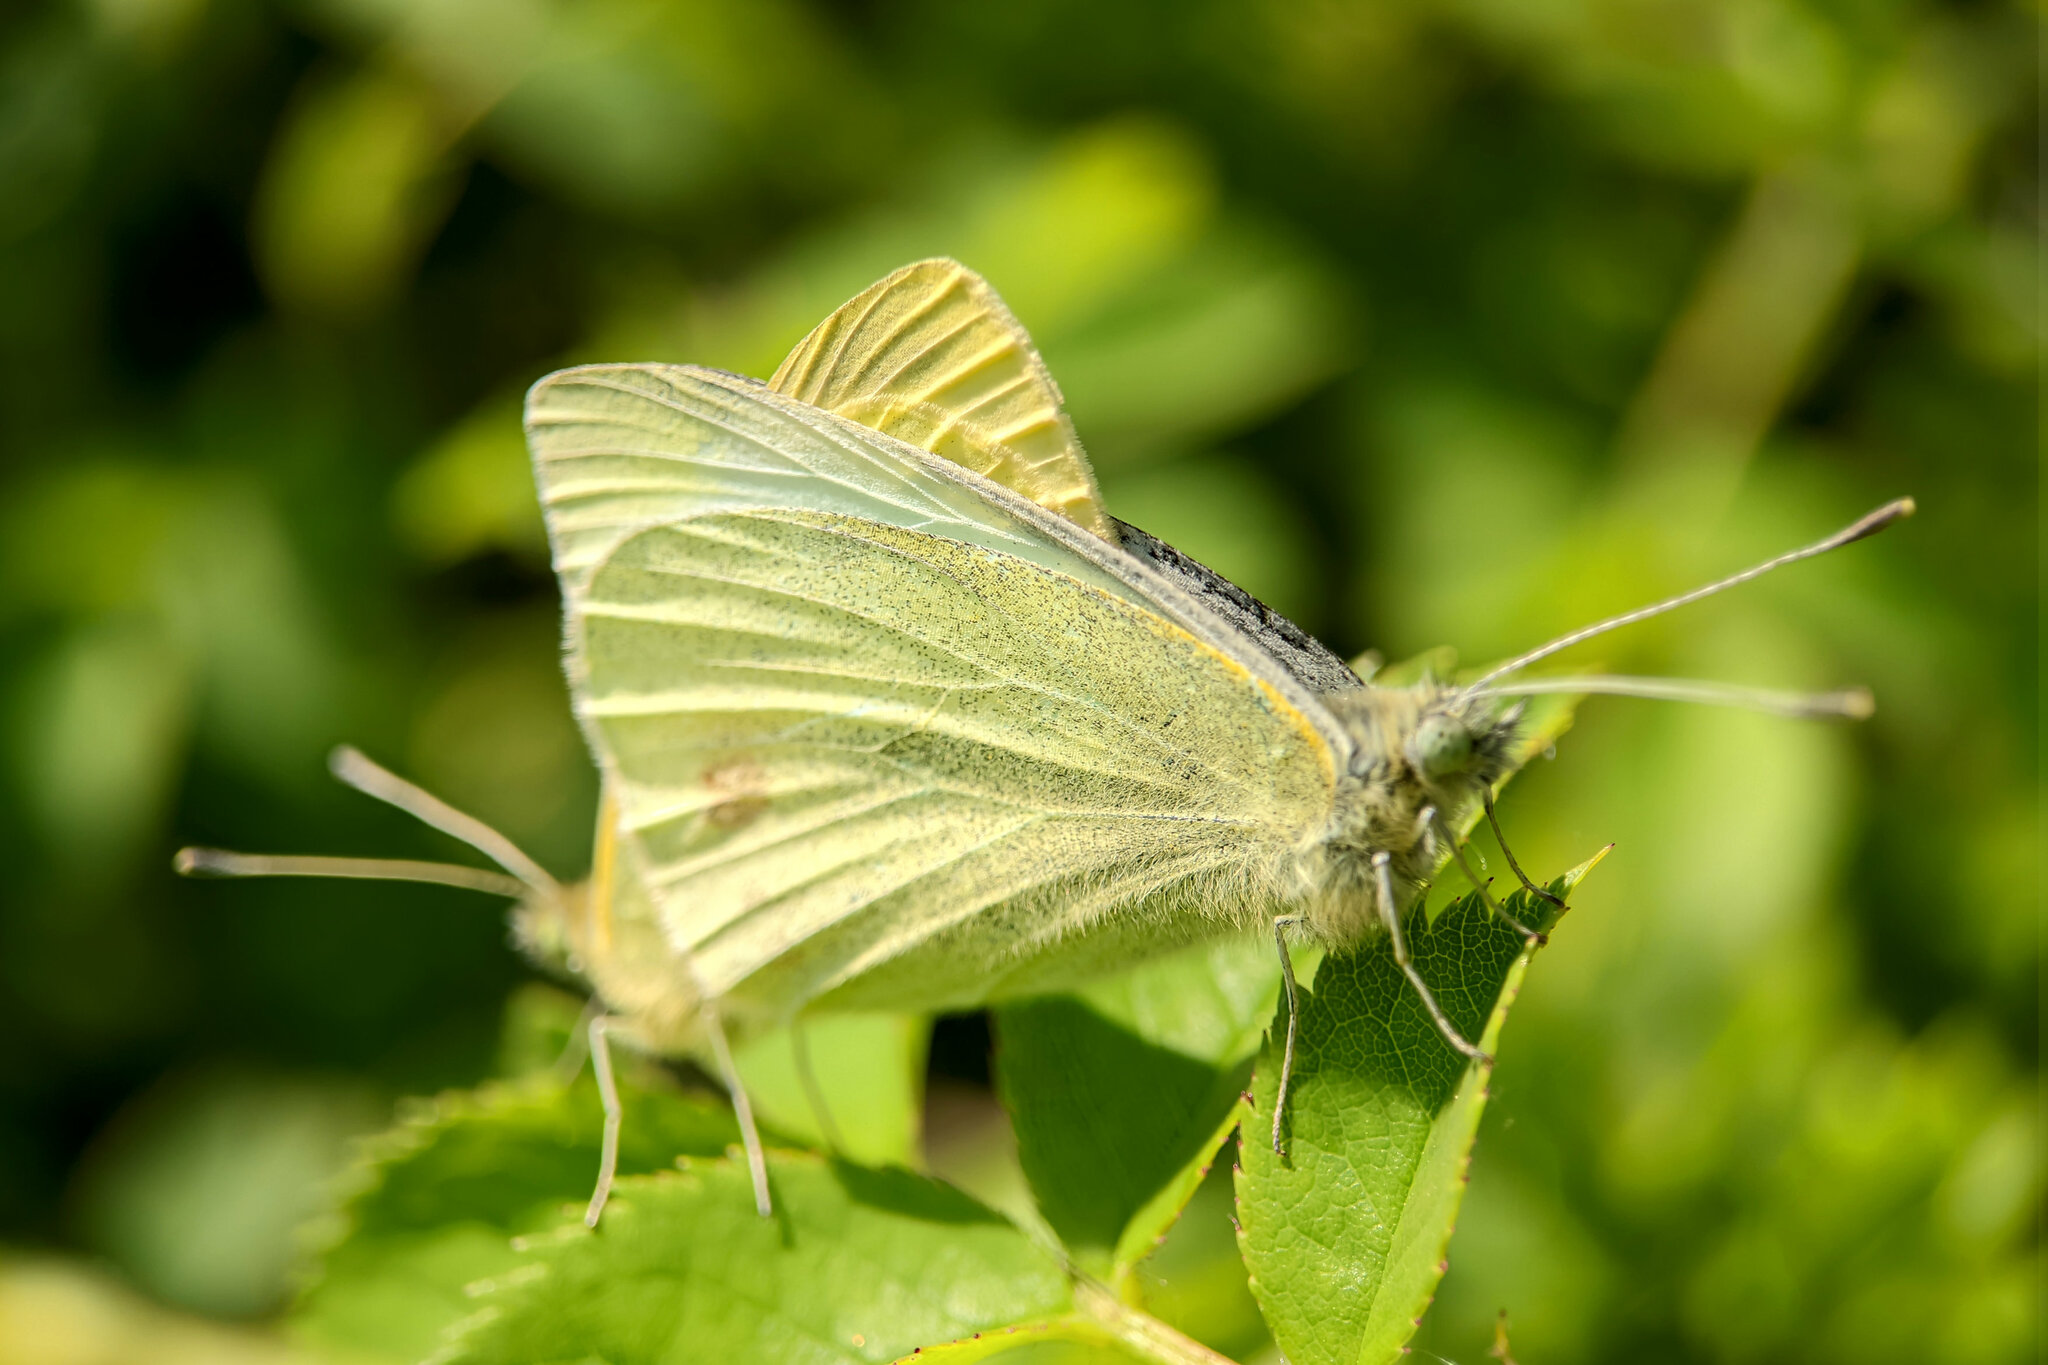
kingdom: Animalia
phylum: Arthropoda
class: Insecta
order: Lepidoptera
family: Pieridae
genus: Pieris
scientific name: Pieris rapae
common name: Small white
